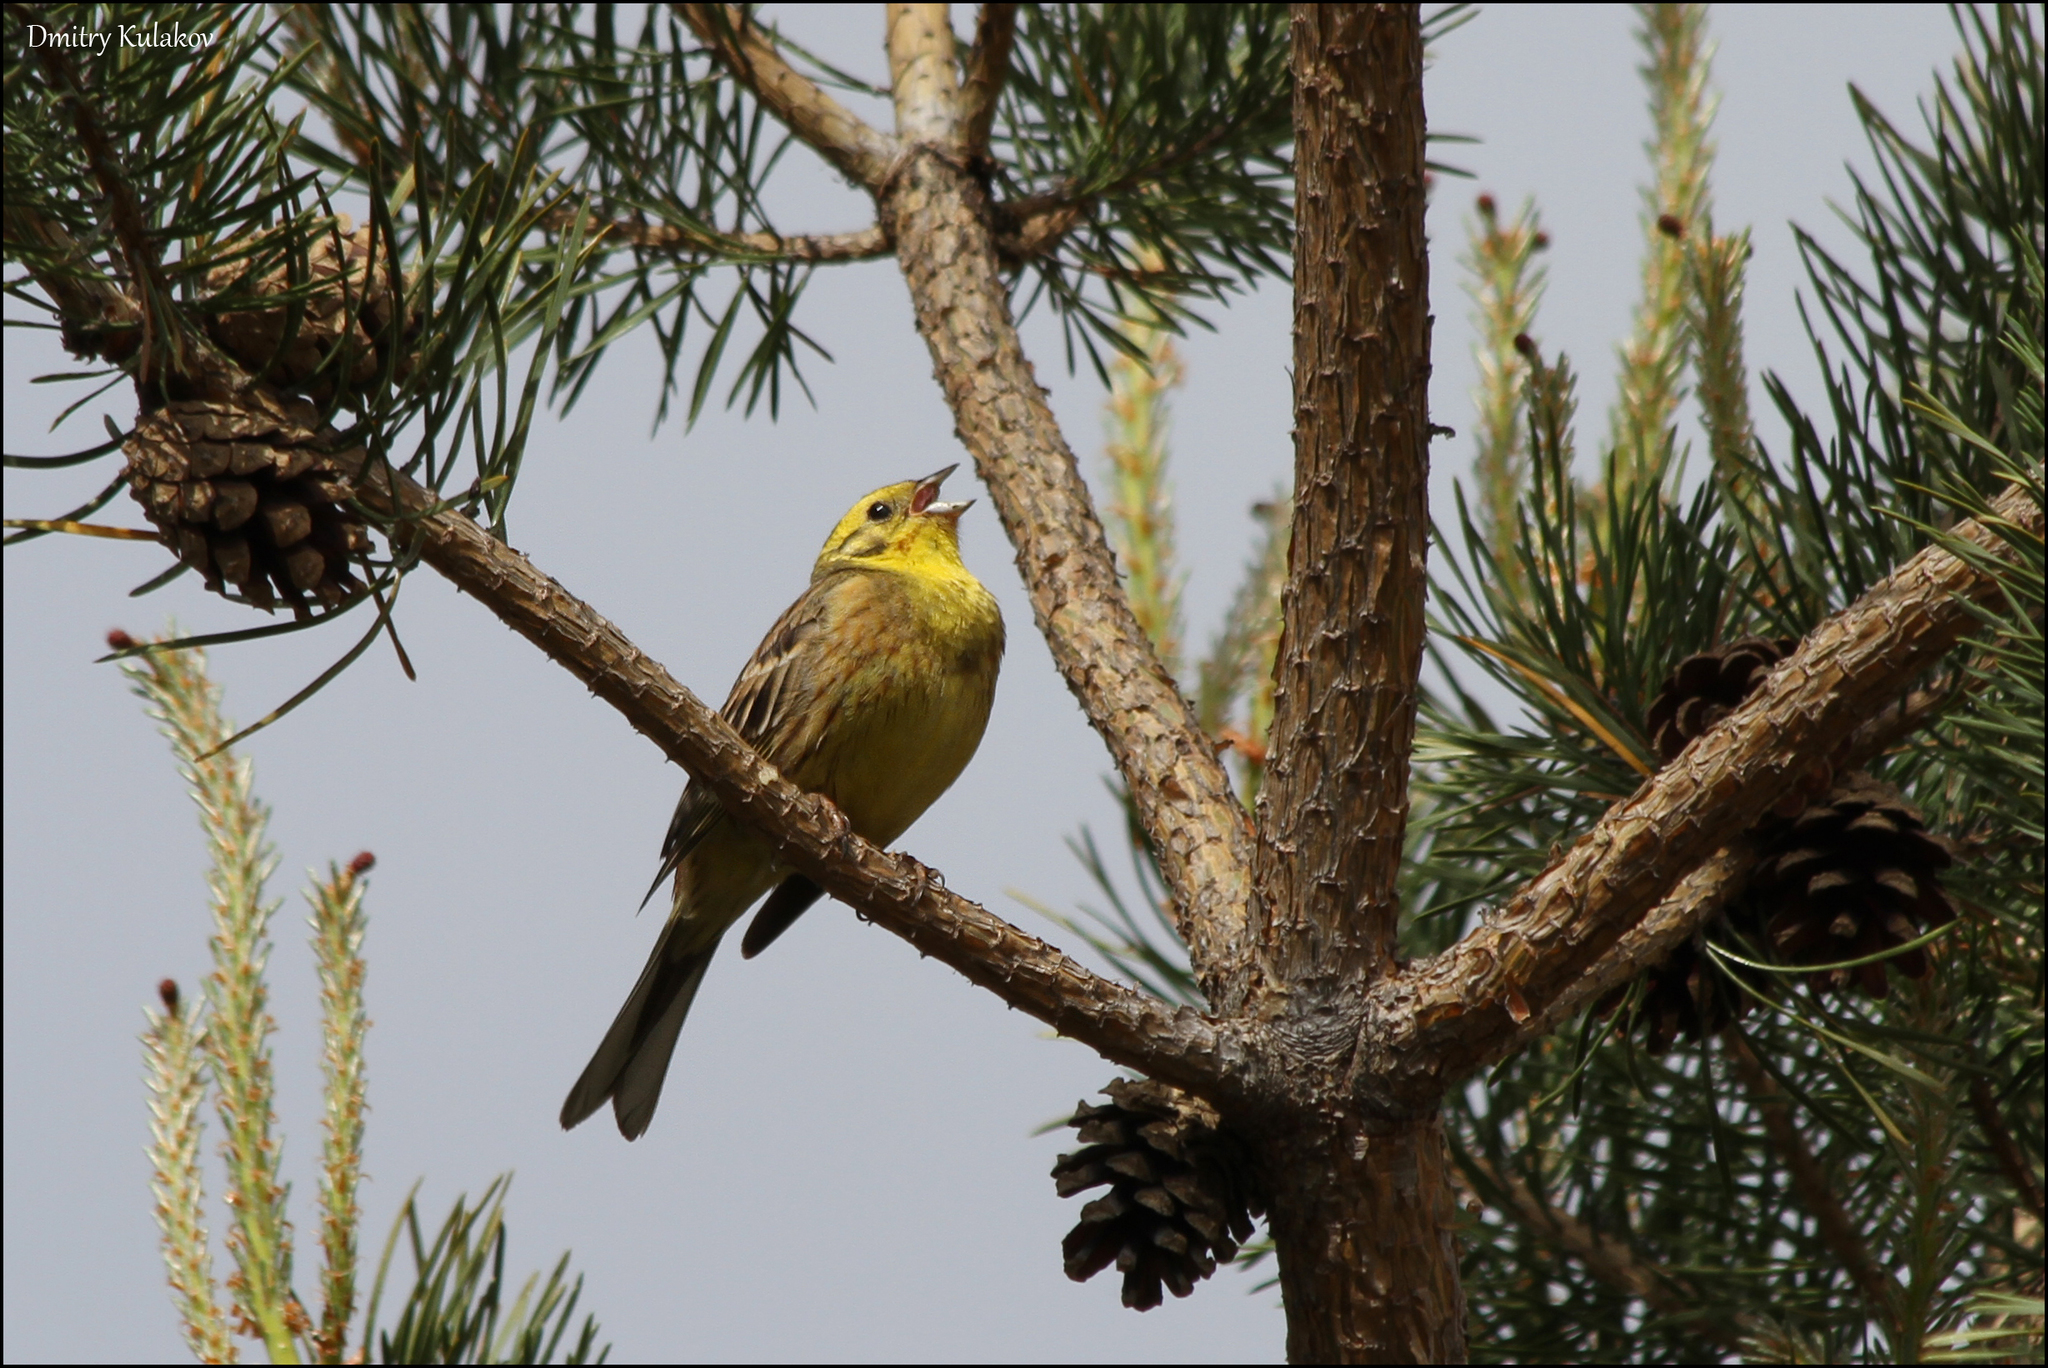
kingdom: Animalia
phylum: Chordata
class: Aves
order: Passeriformes
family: Emberizidae
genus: Emberiza
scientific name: Emberiza citrinella
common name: Yellowhammer
